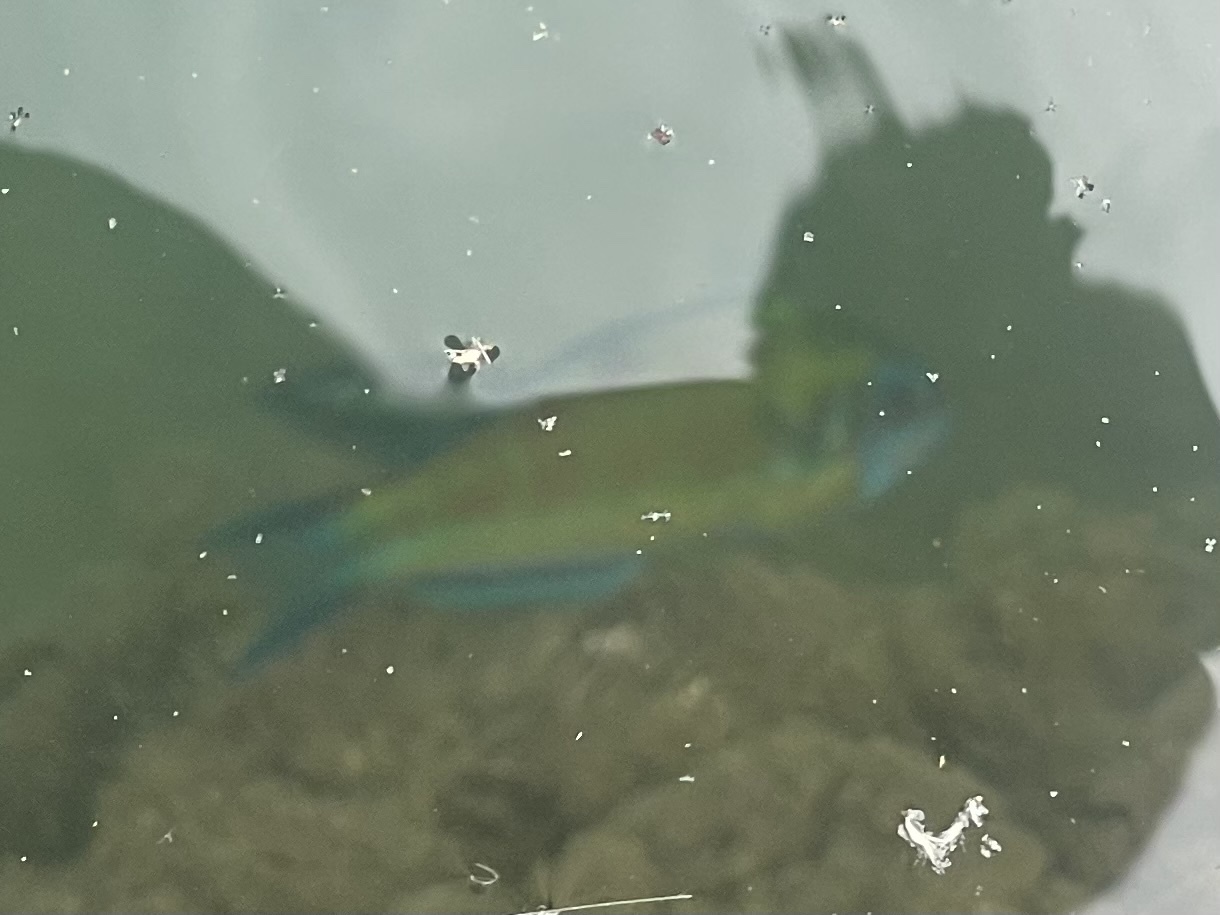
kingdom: Animalia
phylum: Chordata
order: Perciformes
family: Labridae
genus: Thalassoma
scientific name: Thalassoma pavo
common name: Ornate wrasse
